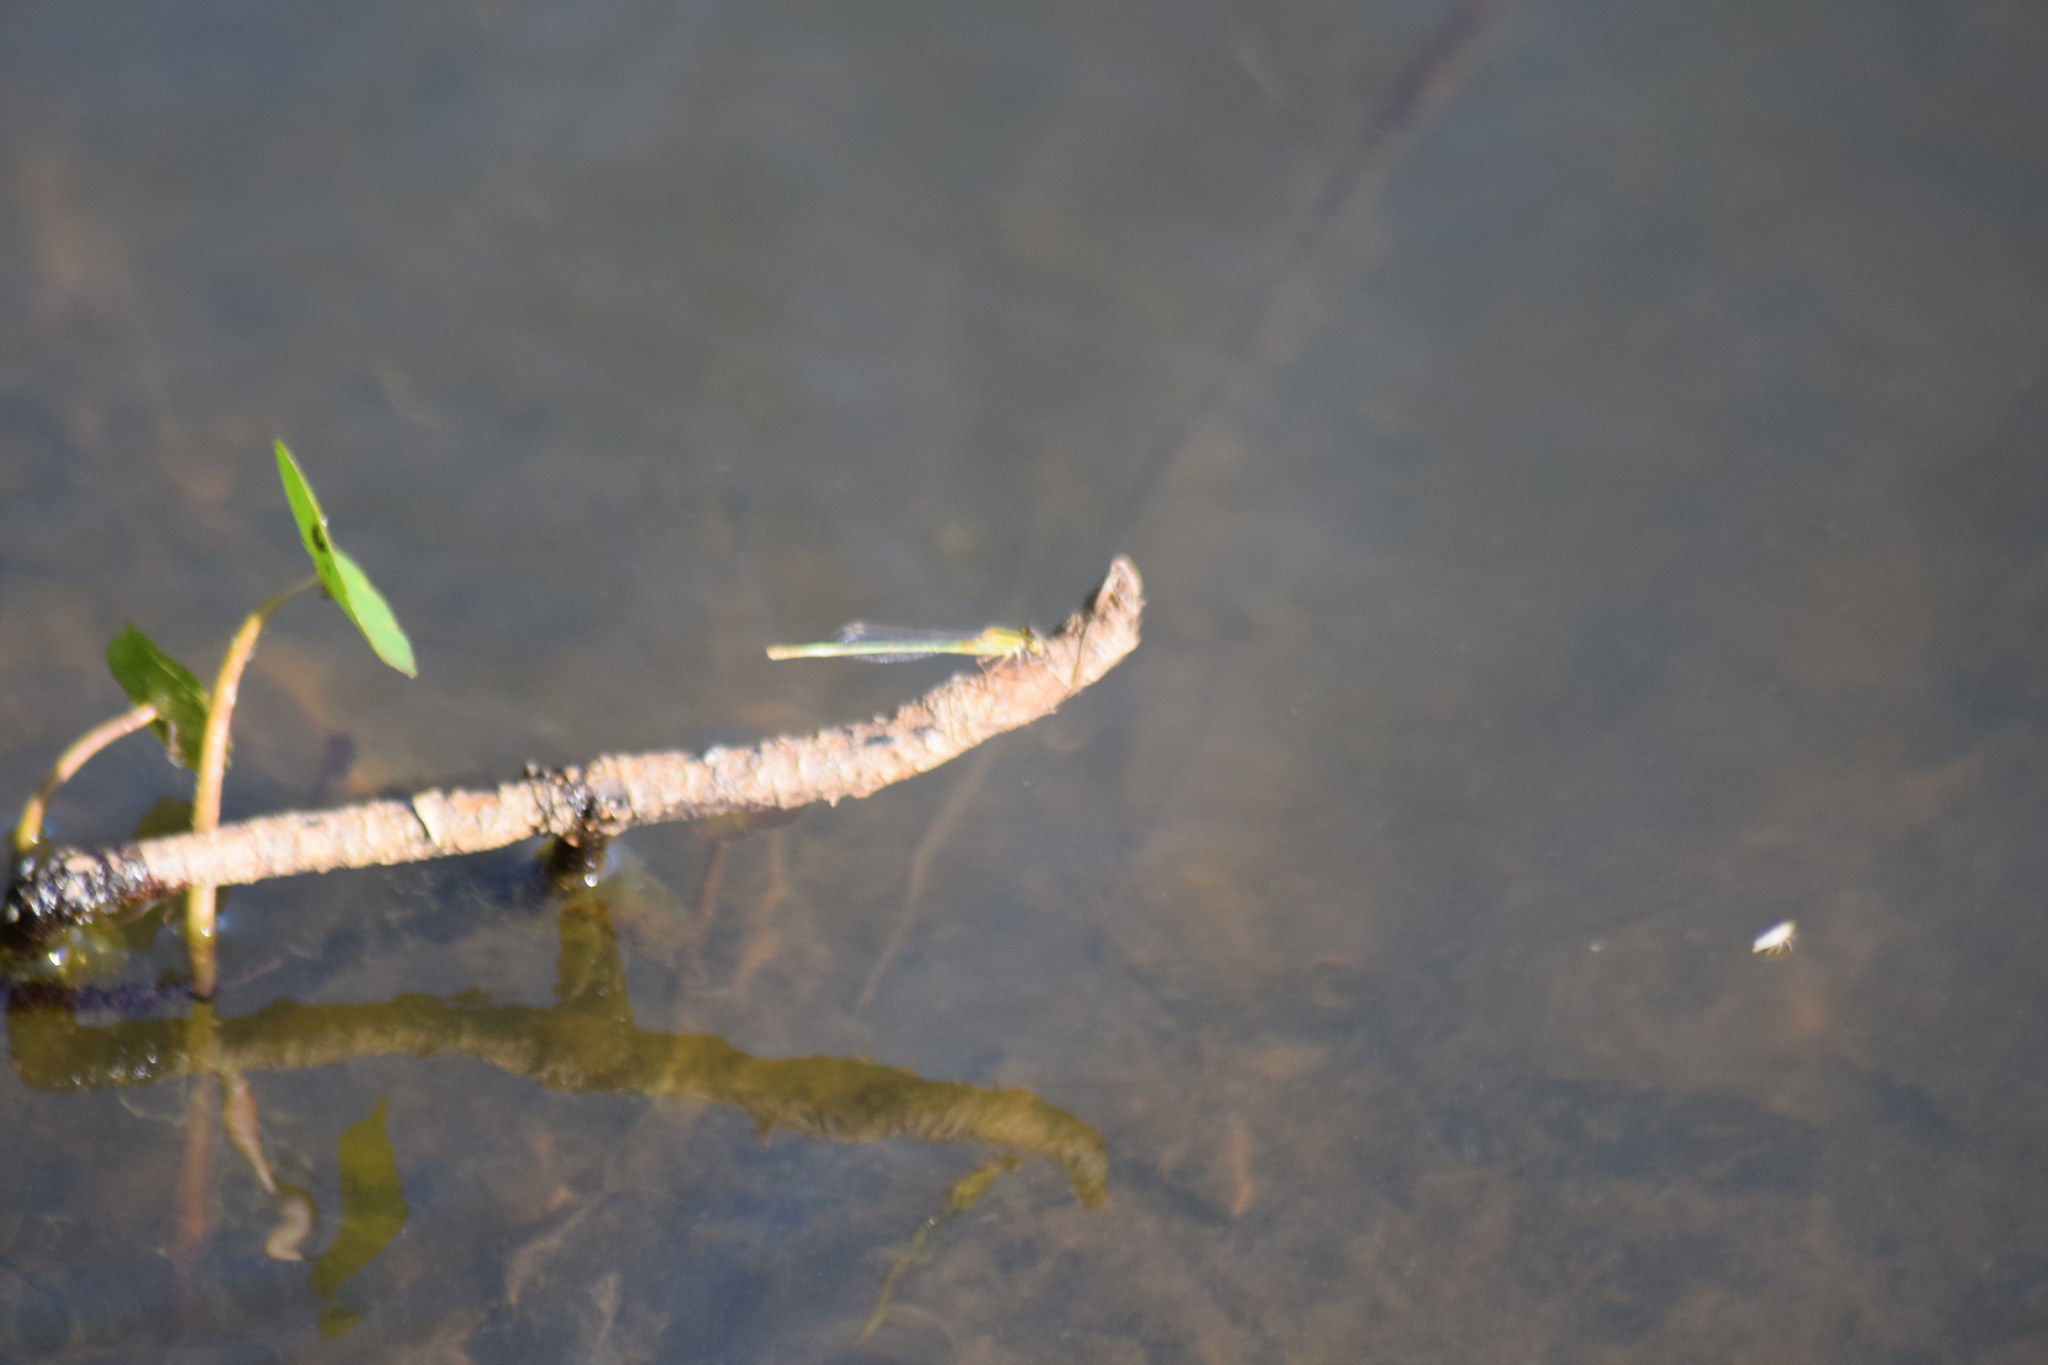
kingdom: Animalia
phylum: Arthropoda
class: Insecta
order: Odonata
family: Coenagrionidae
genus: Ischnura
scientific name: Ischnura ramburii
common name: Rambur's forktail
